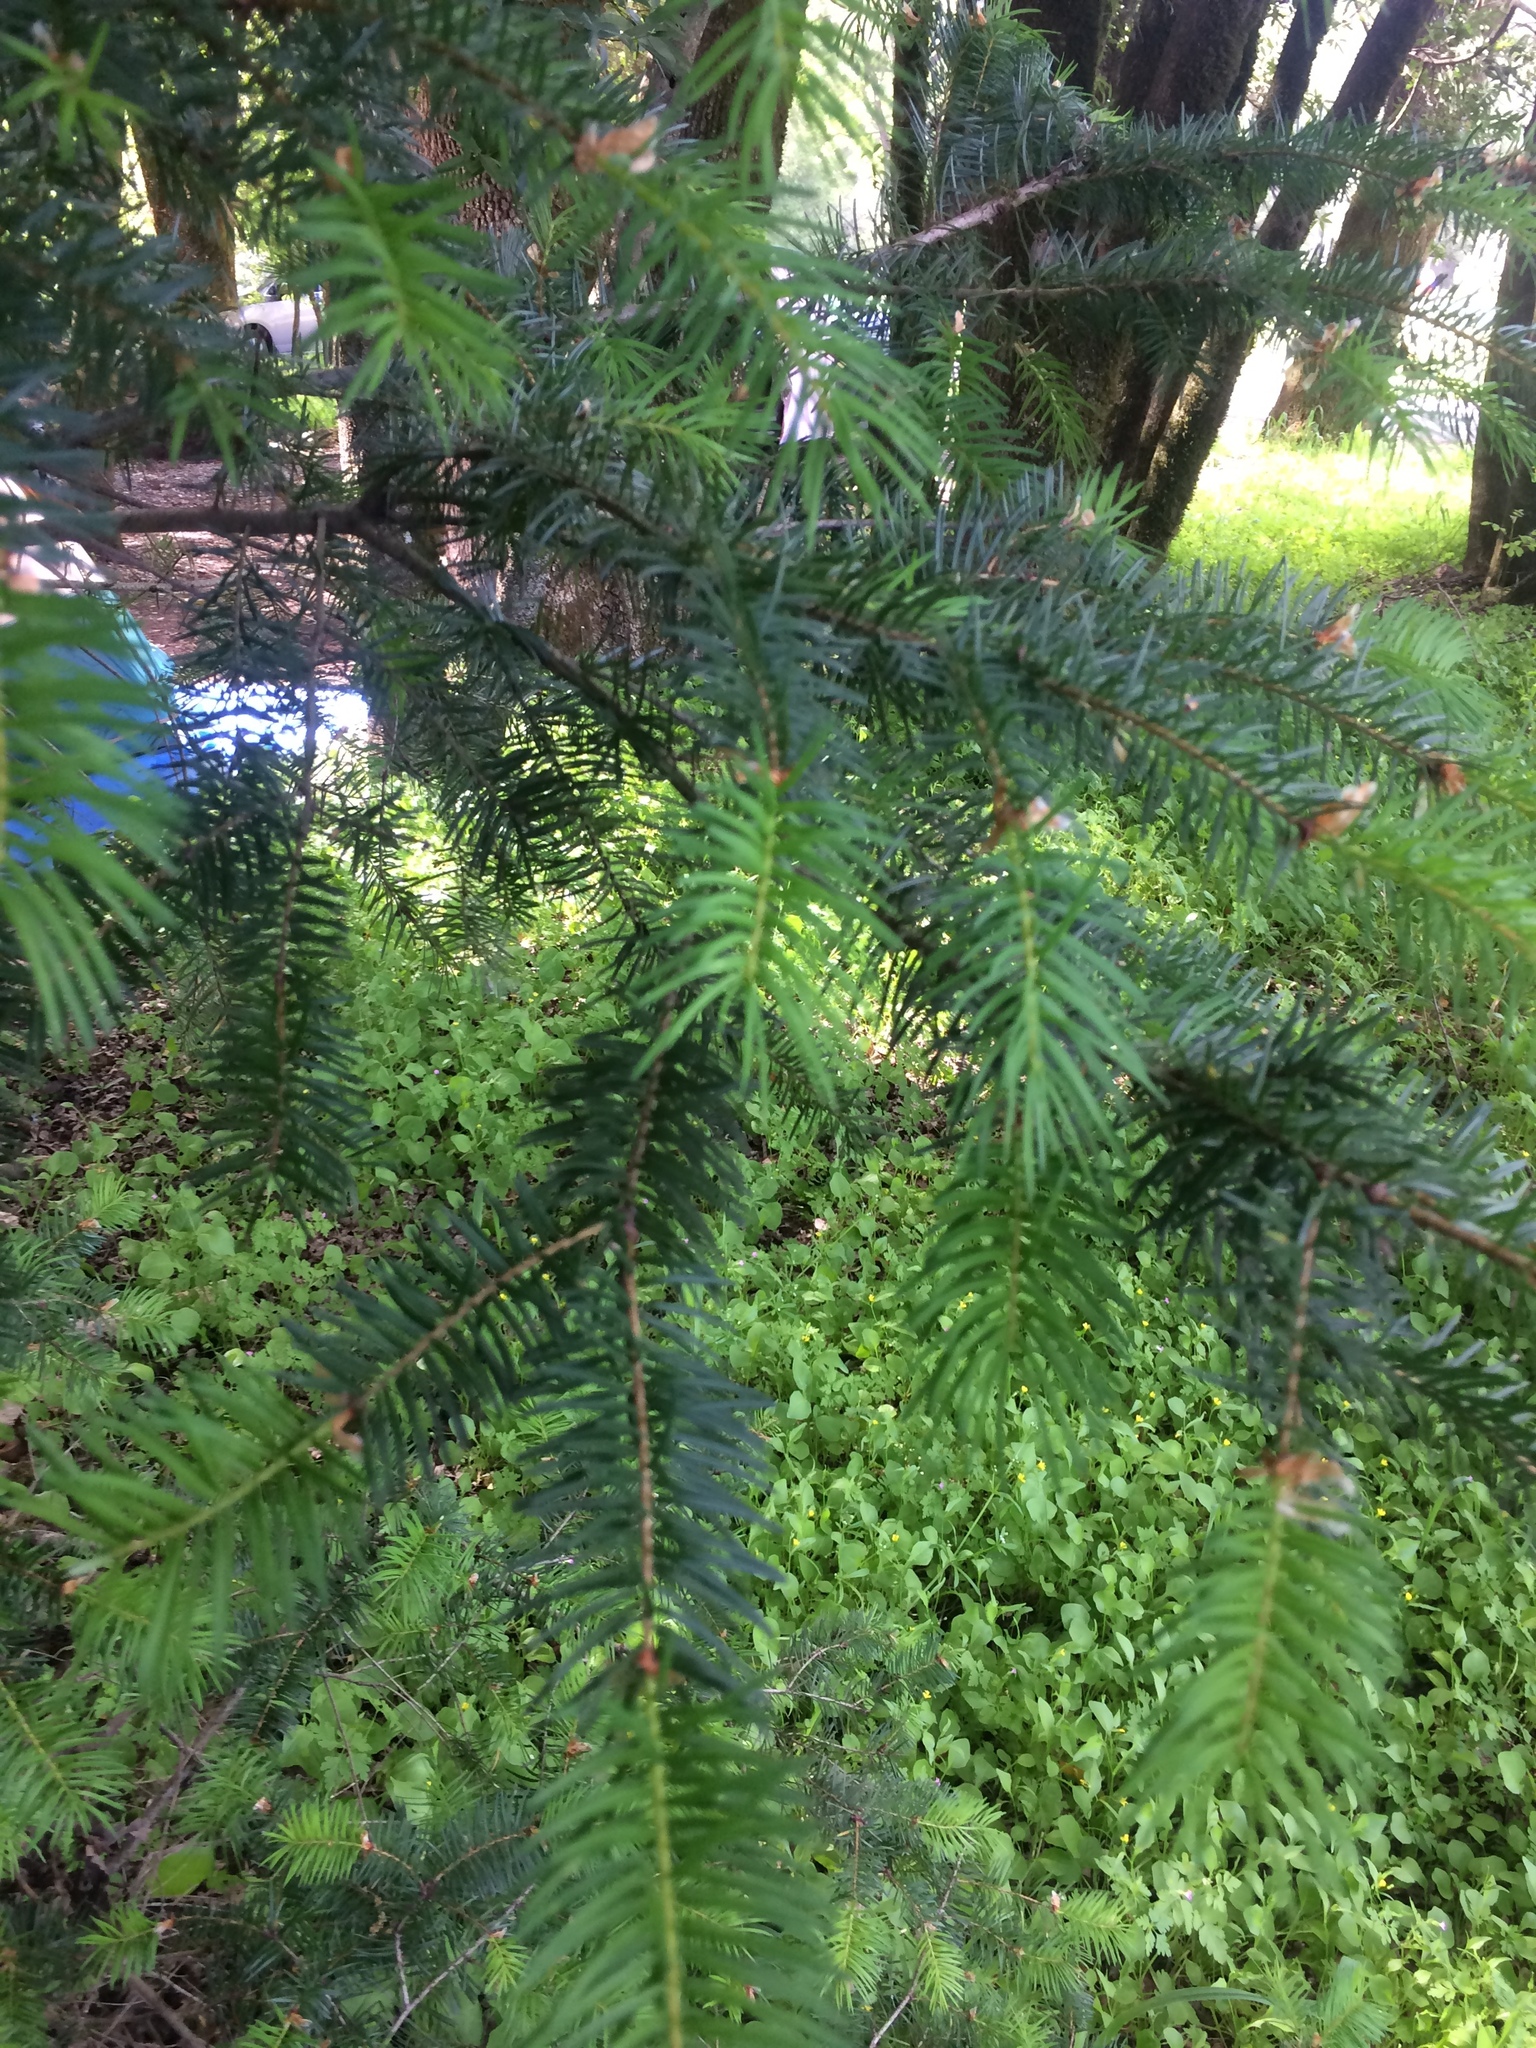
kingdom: Plantae
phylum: Tracheophyta
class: Pinopsida
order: Pinales
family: Pinaceae
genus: Pseudotsuga
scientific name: Pseudotsuga menziesii
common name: Douglas fir
